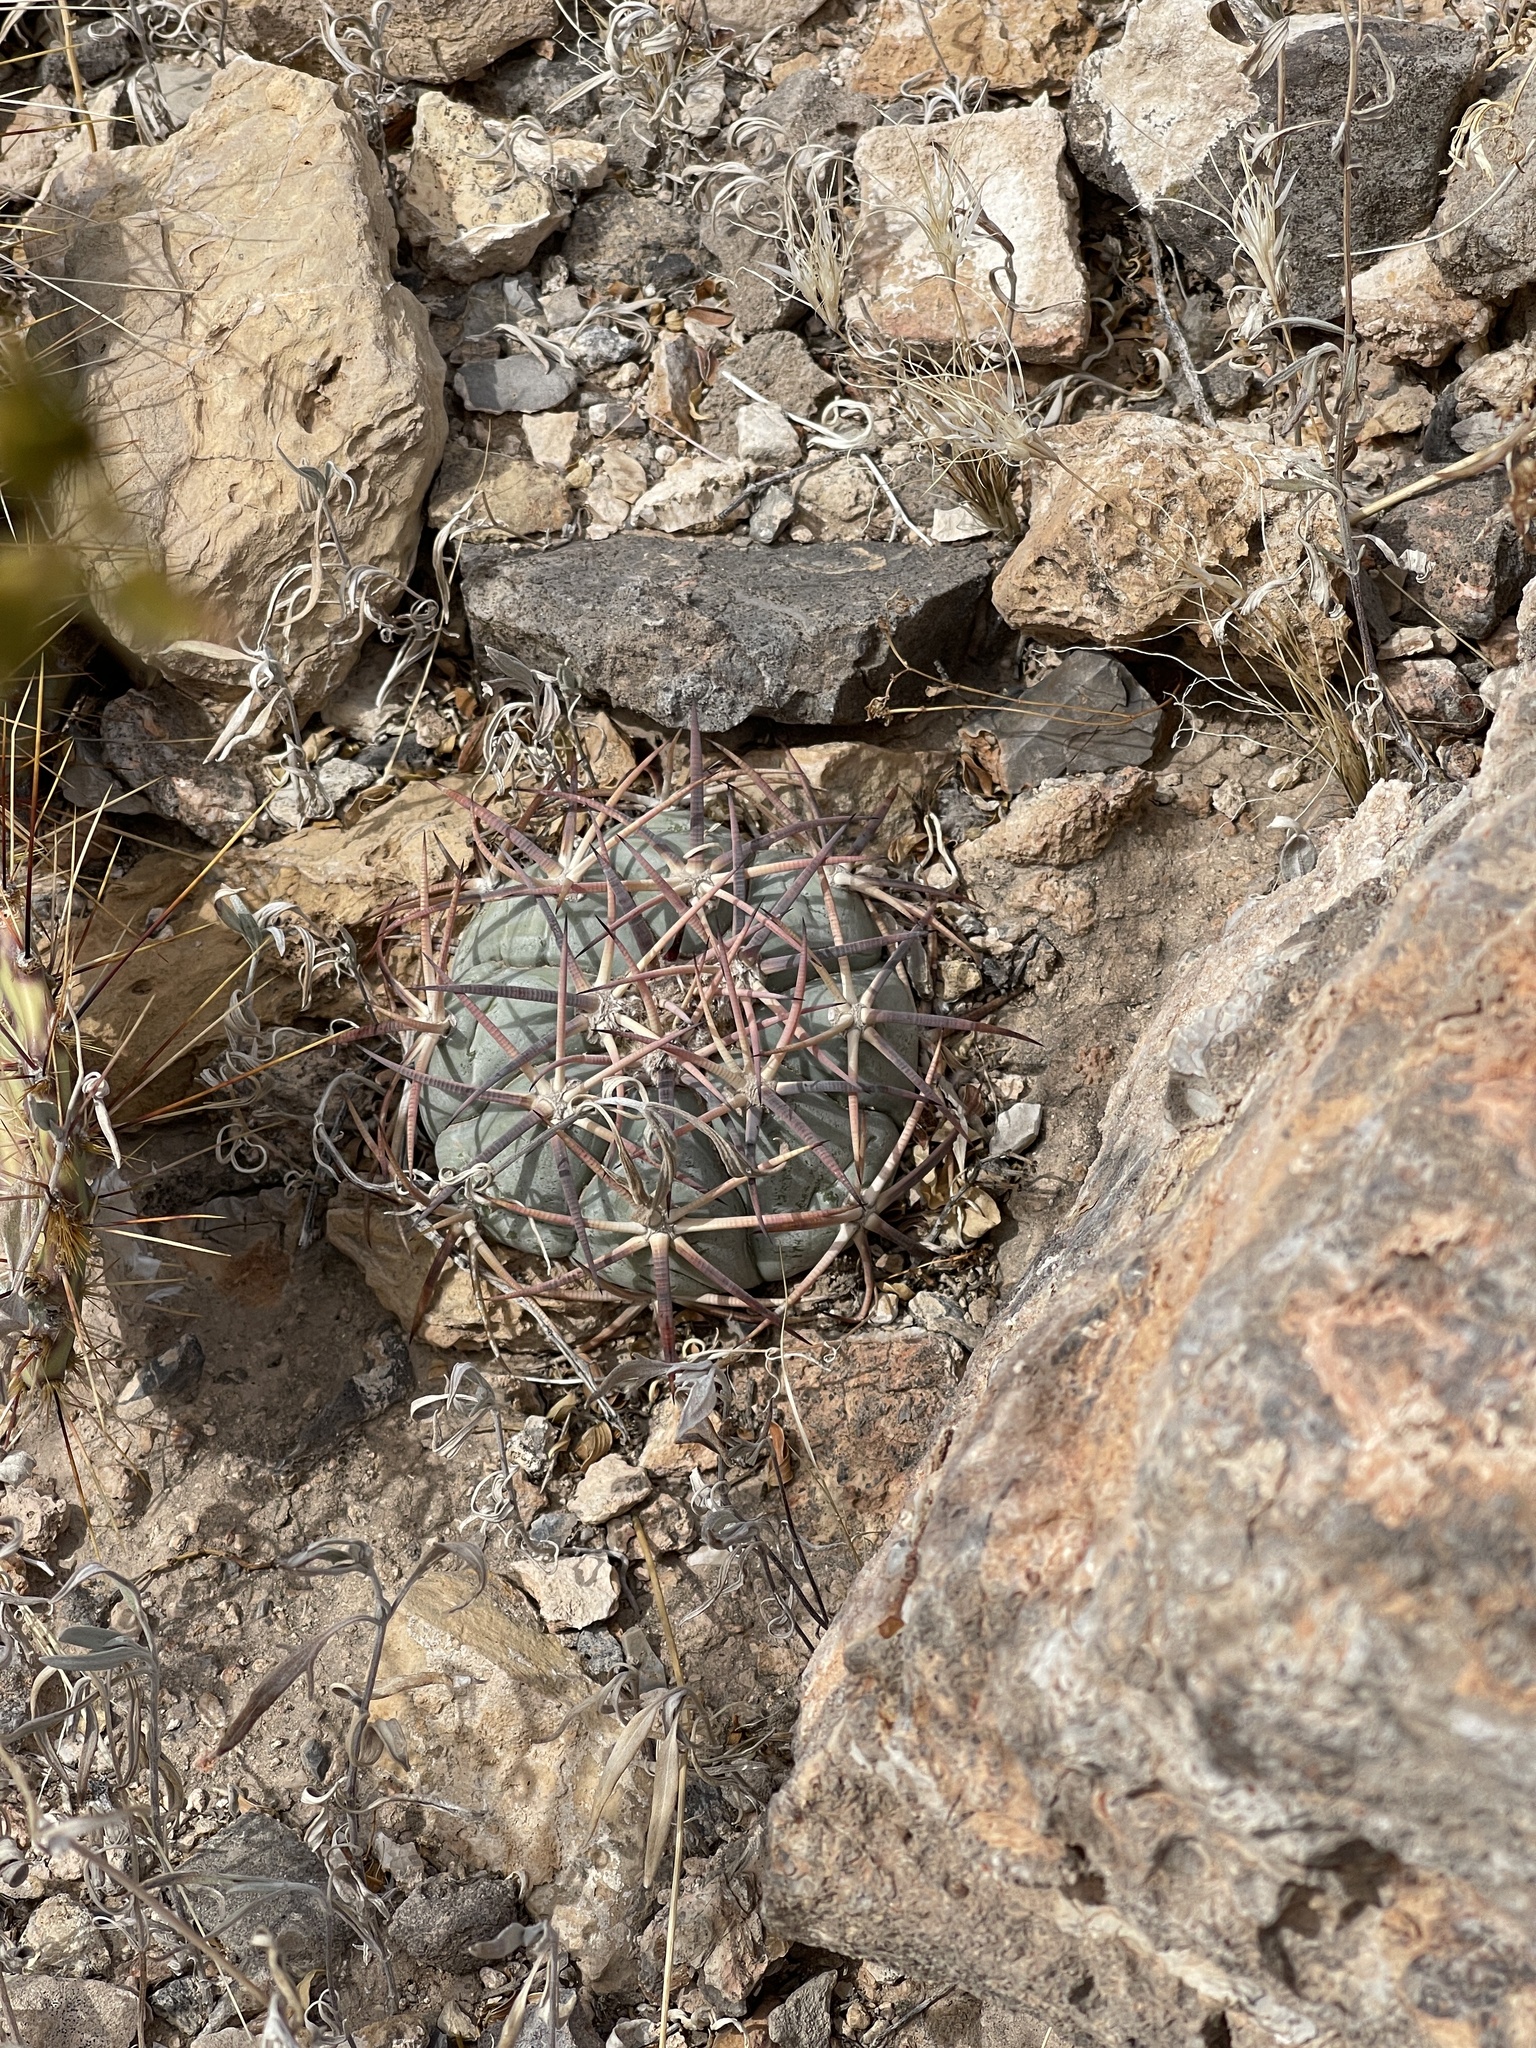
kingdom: Plantae
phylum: Tracheophyta
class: Magnoliopsida
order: Caryophyllales
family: Cactaceae
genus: Echinocactus
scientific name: Echinocactus horizonthalonius
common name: Devilshead
